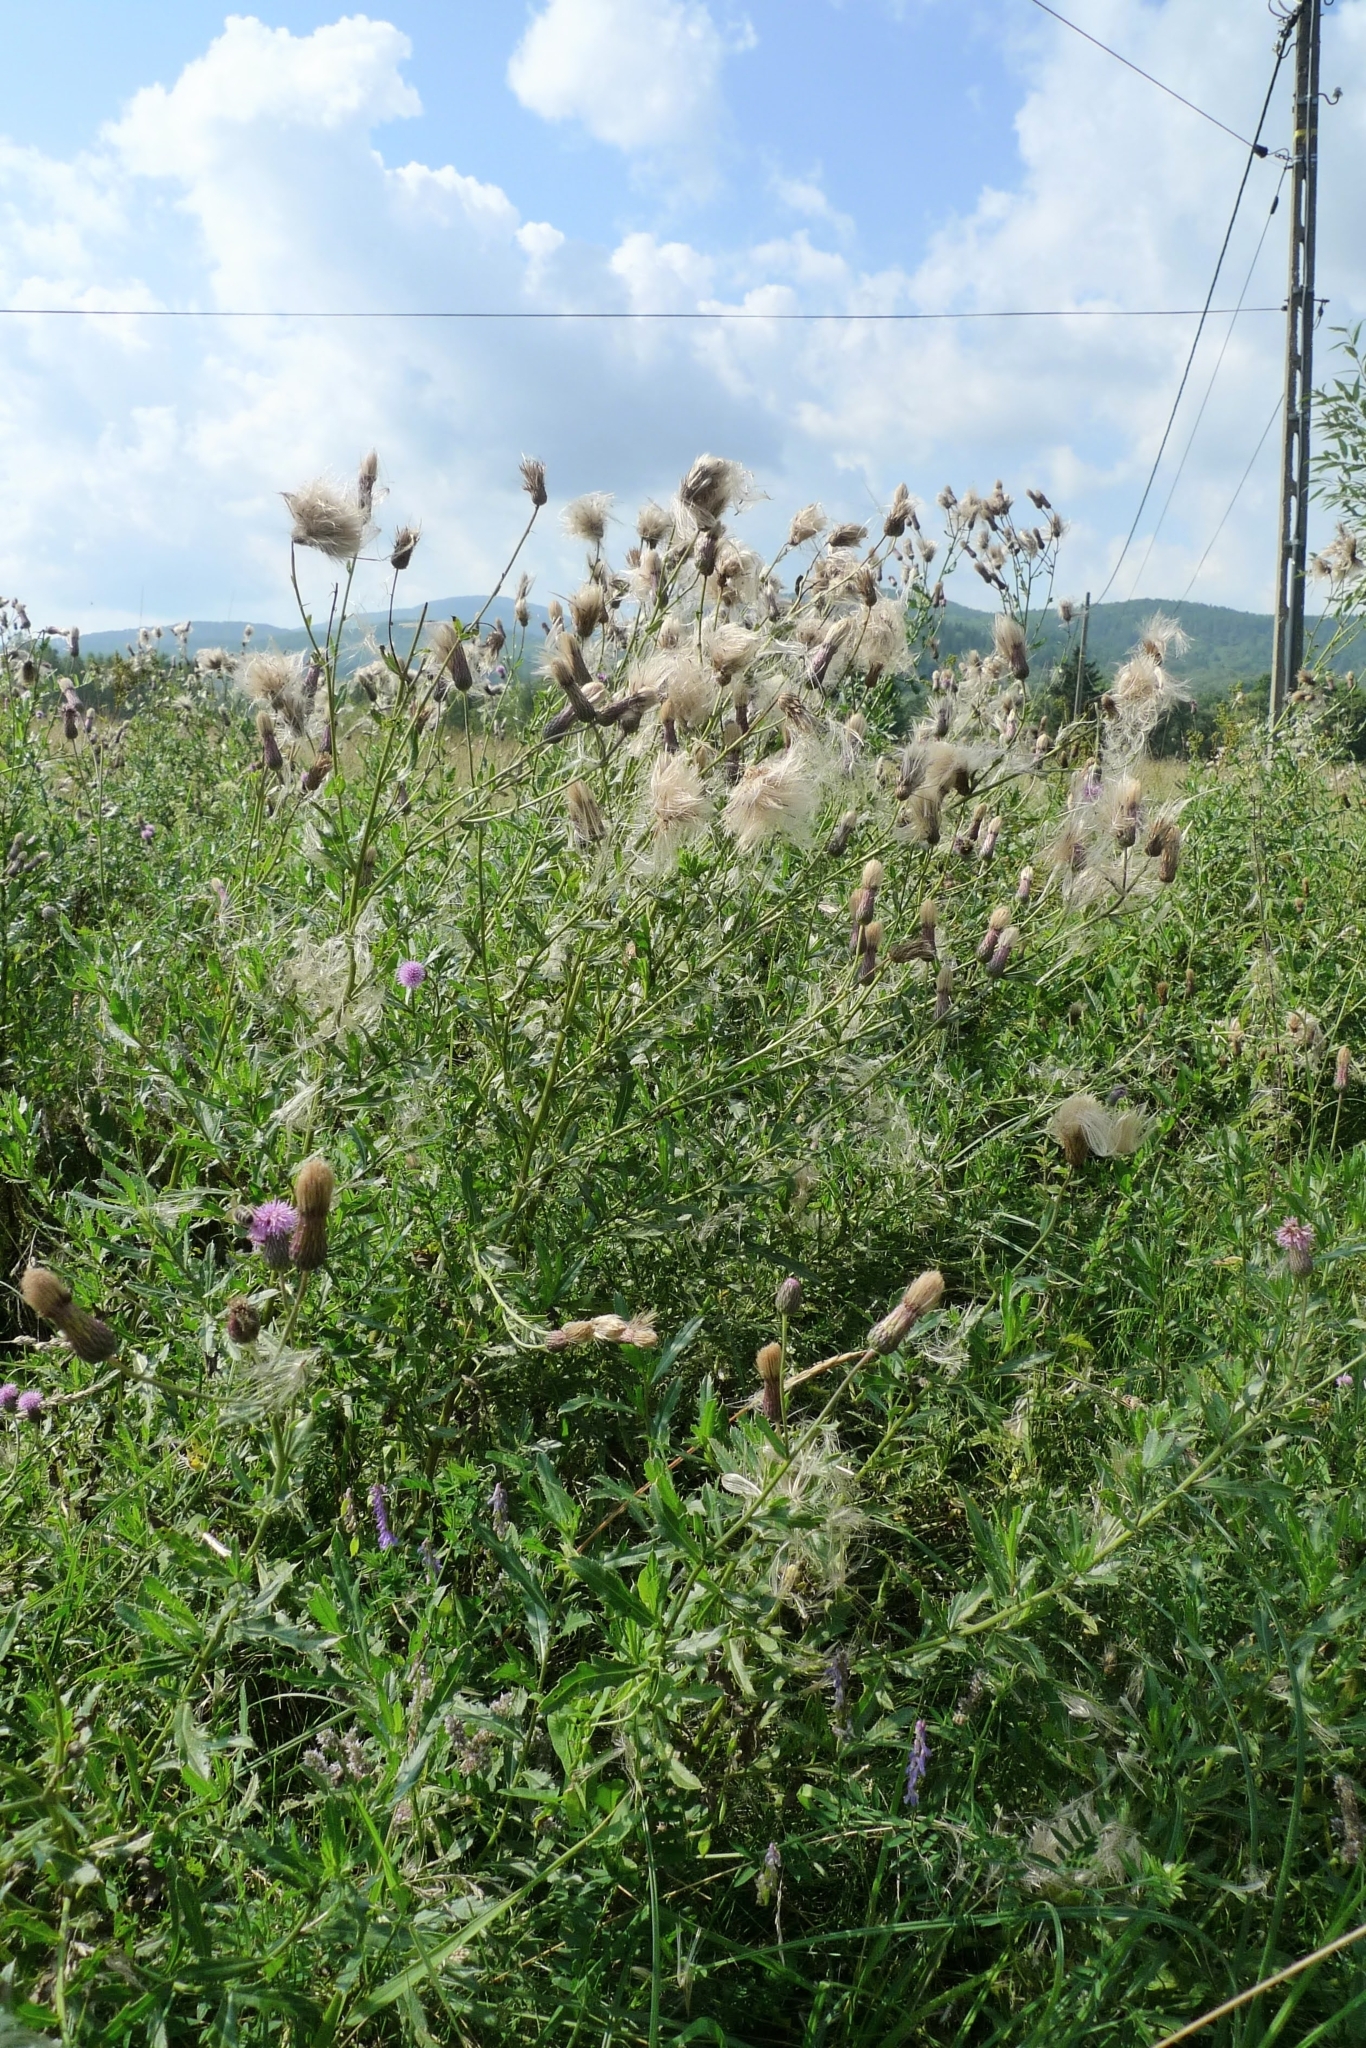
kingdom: Plantae
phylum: Tracheophyta
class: Magnoliopsida
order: Asterales
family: Asteraceae
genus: Cirsium
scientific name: Cirsium arvense
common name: Creeping thistle
